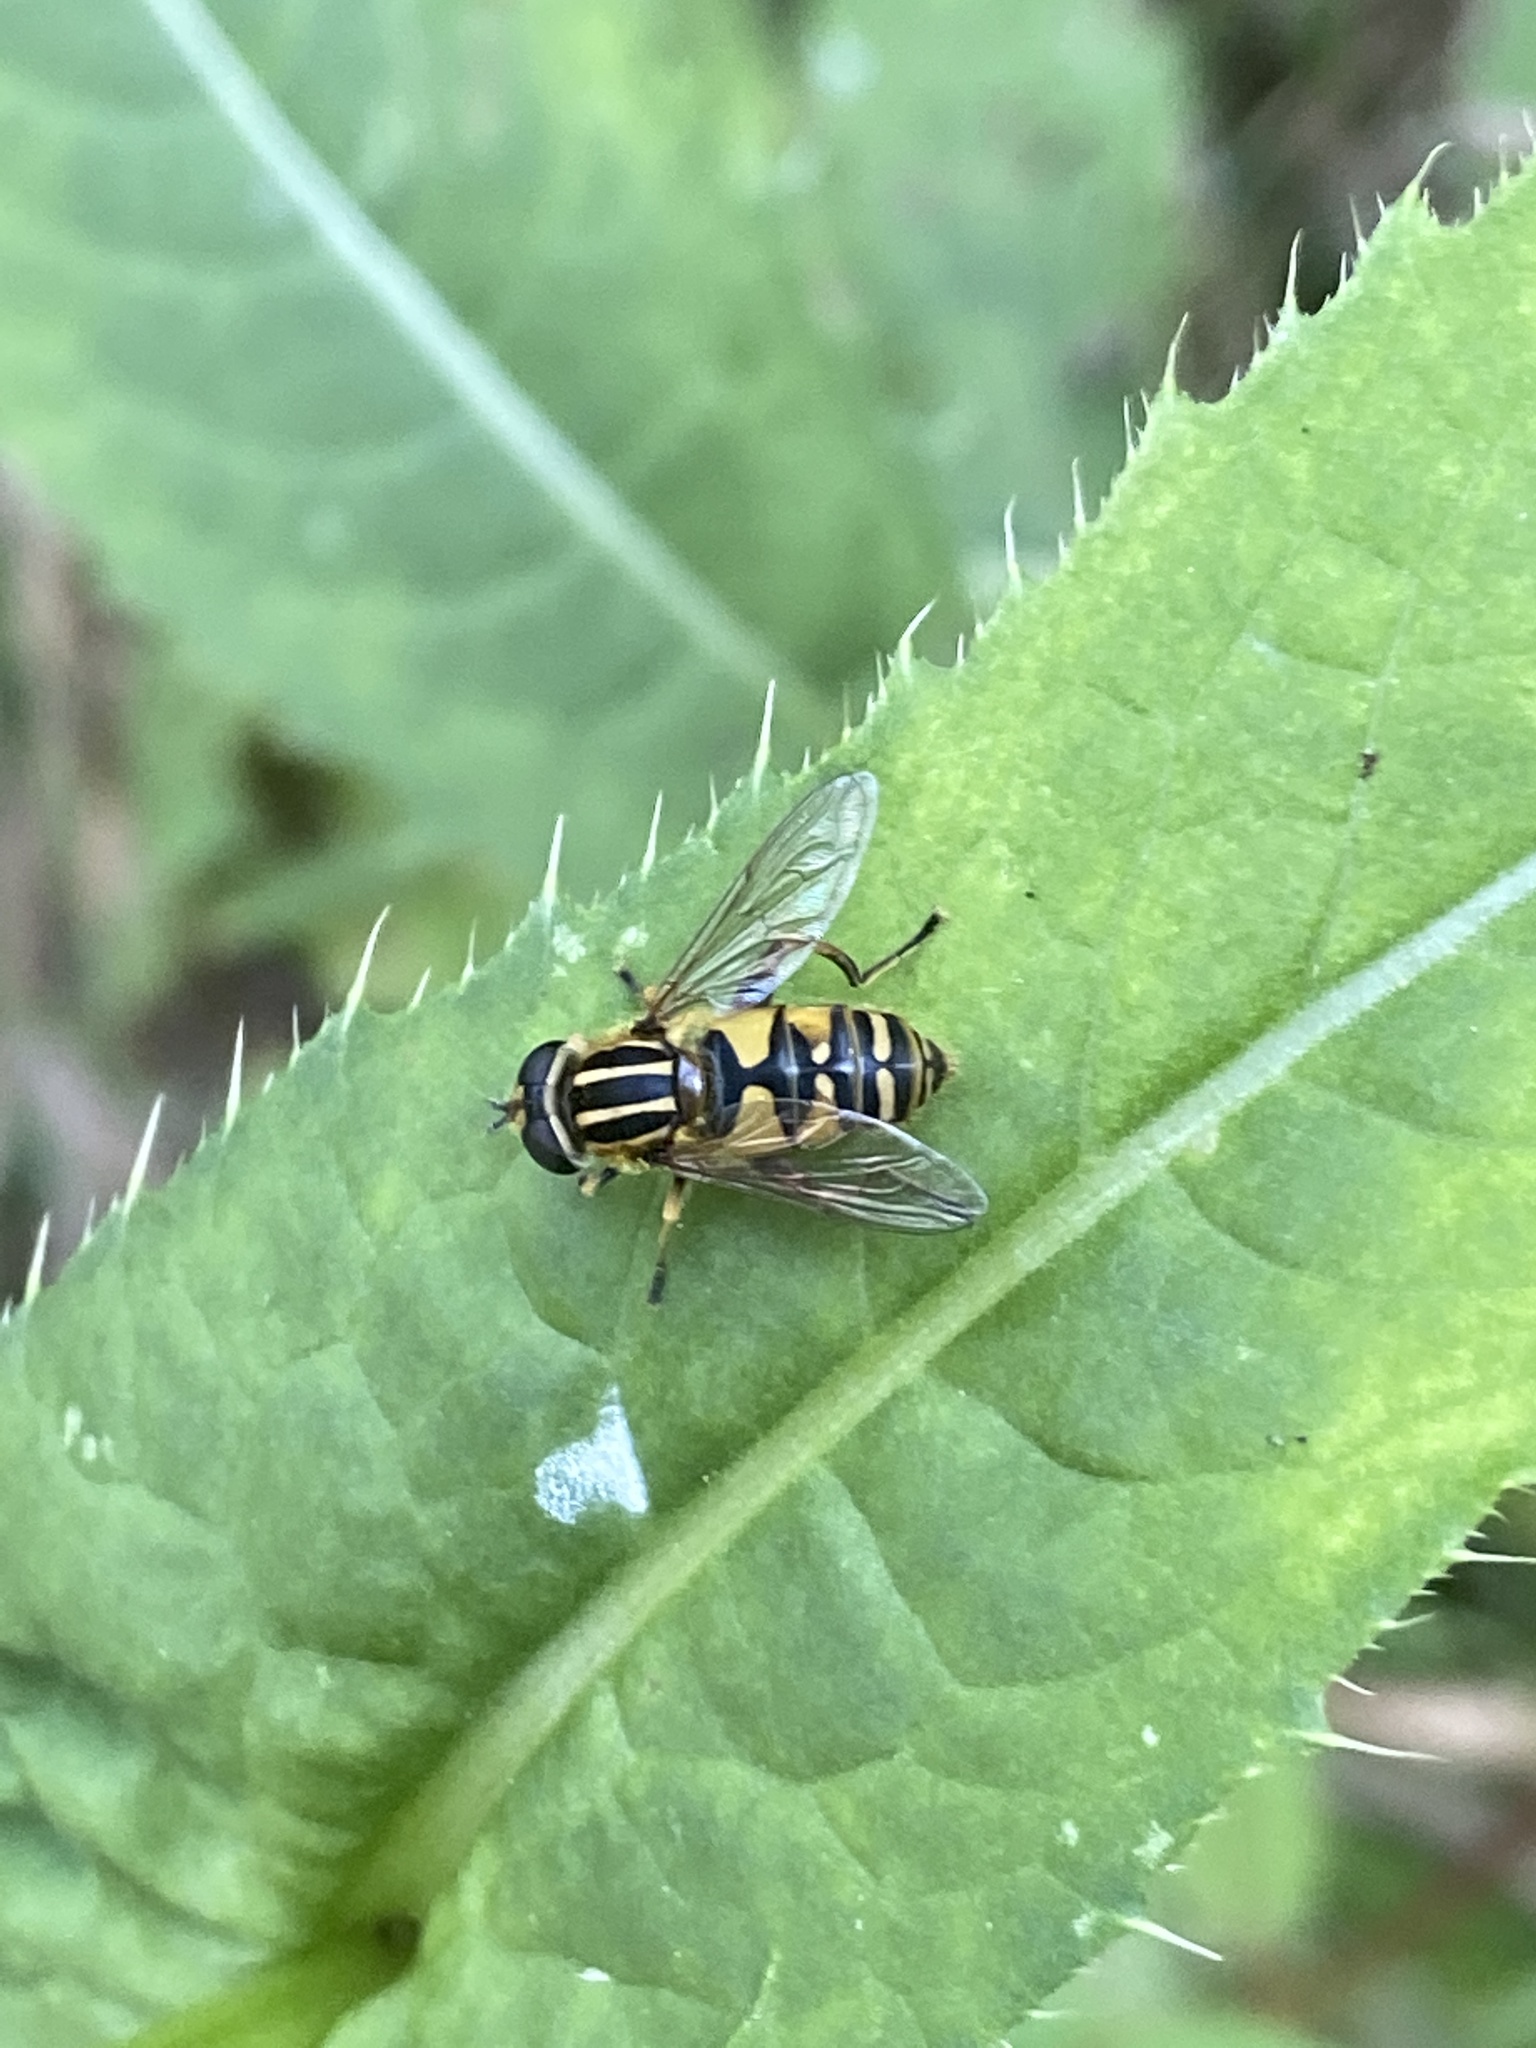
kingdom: Animalia
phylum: Arthropoda
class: Insecta
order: Diptera
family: Syrphidae
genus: Helophilus
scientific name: Helophilus pendulus
